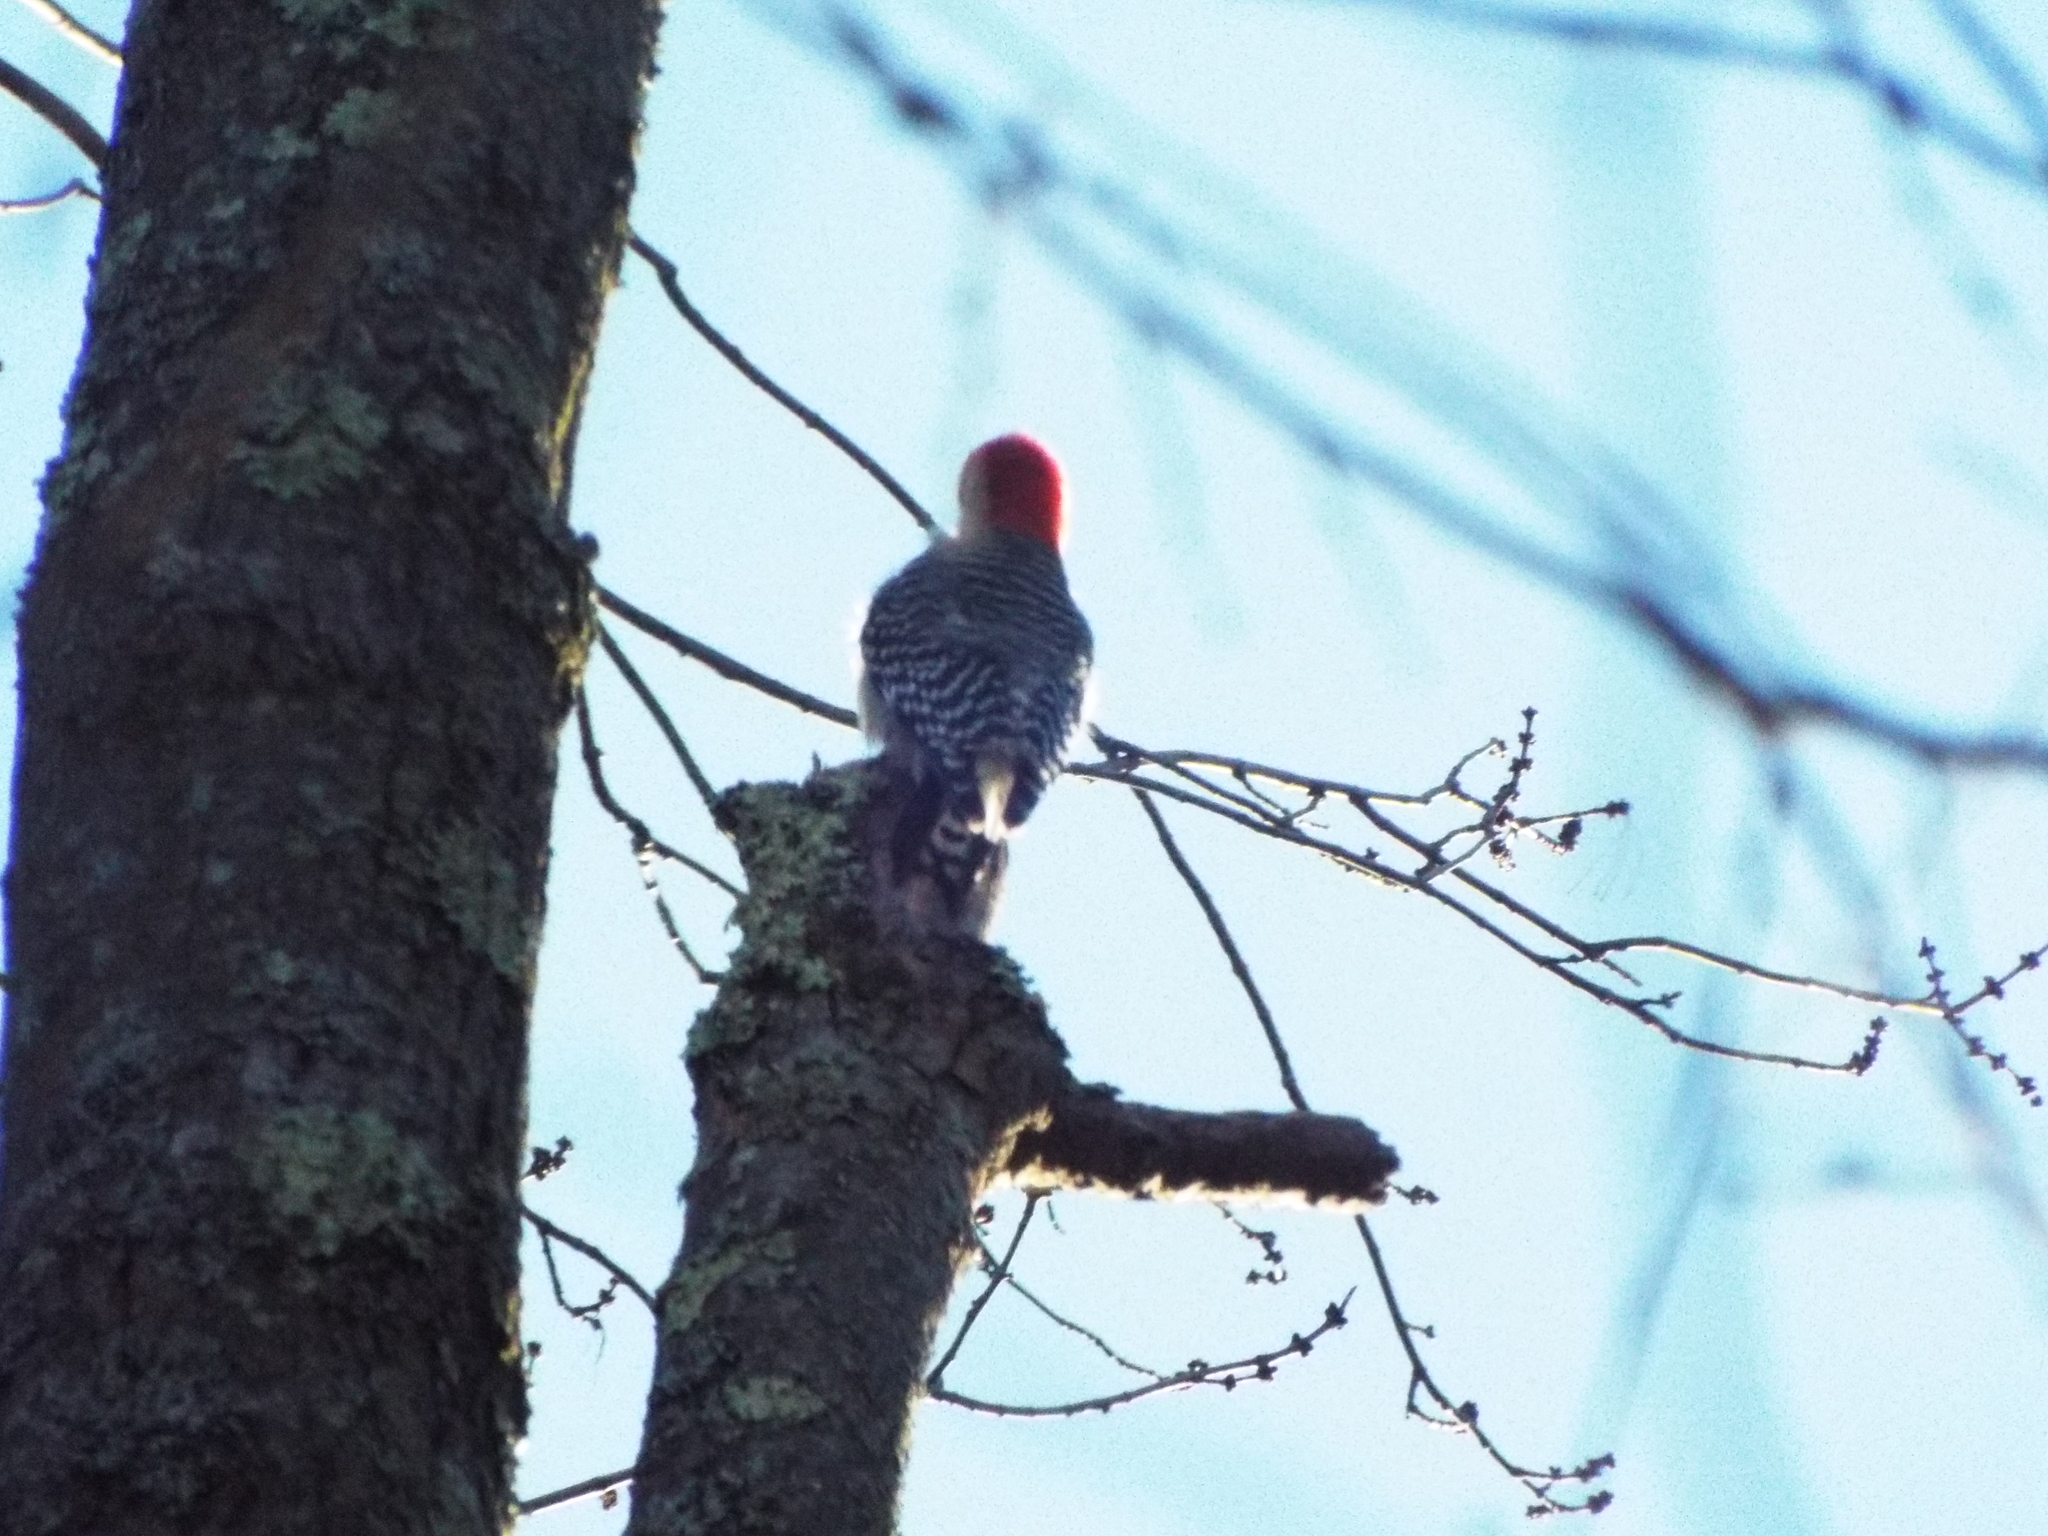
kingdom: Animalia
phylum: Chordata
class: Aves
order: Piciformes
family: Picidae
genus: Melanerpes
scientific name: Melanerpes carolinus
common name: Red-bellied woodpecker
